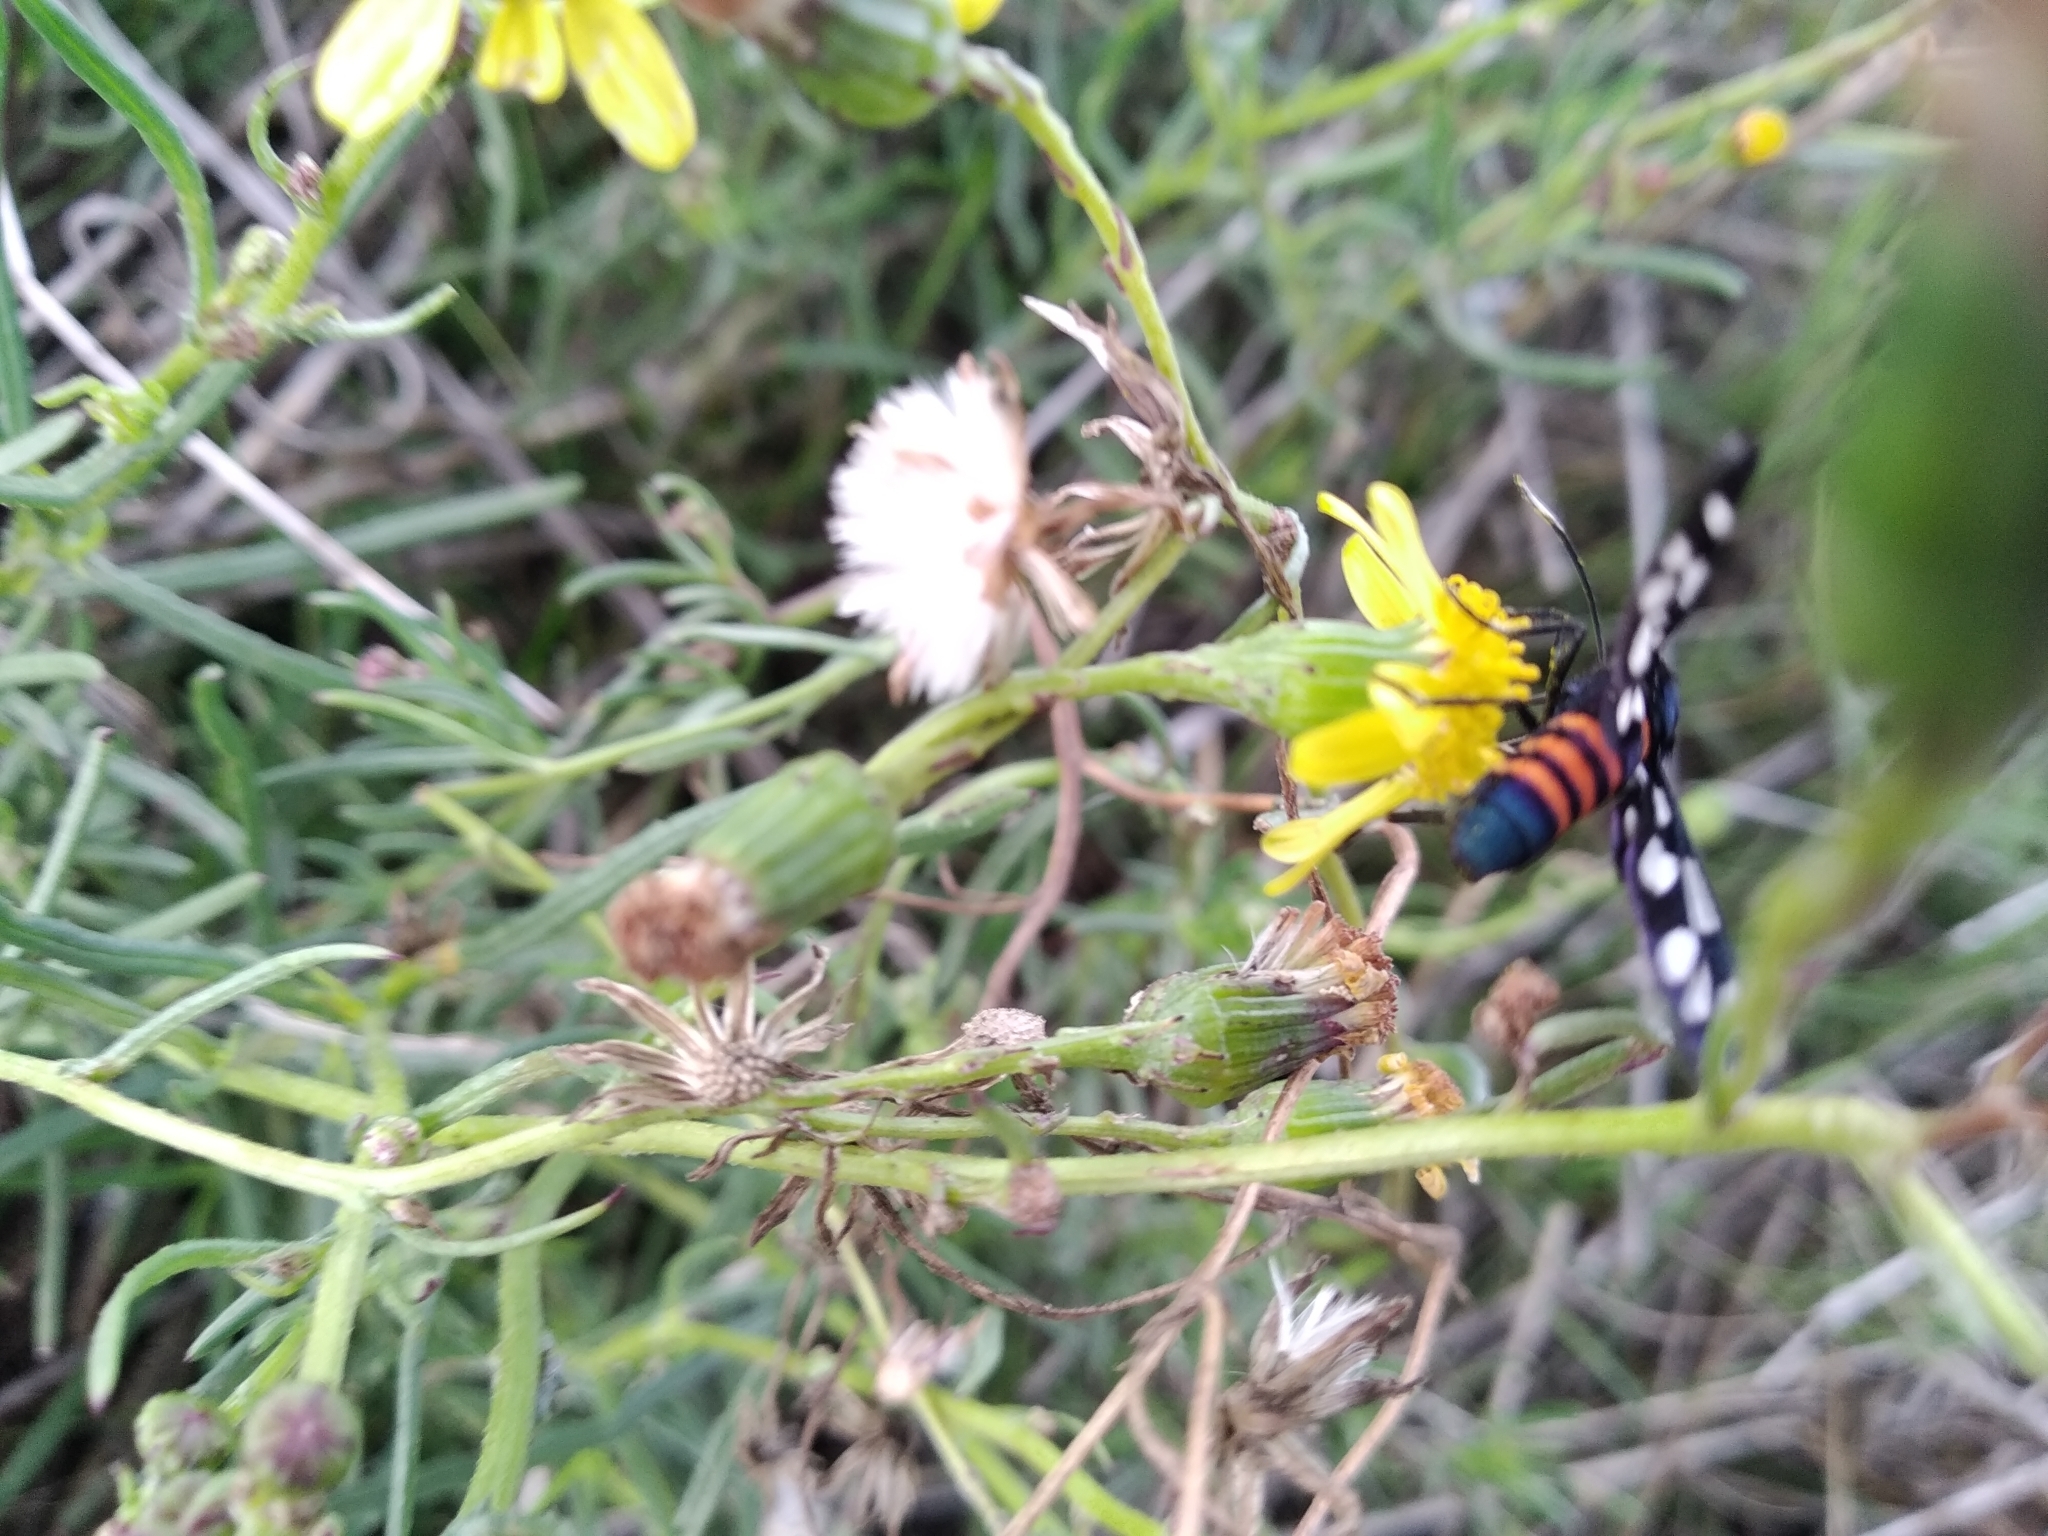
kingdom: Animalia
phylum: Arthropoda
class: Insecta
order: Lepidoptera
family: Erebidae
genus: Amata
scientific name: Amata cerbera
